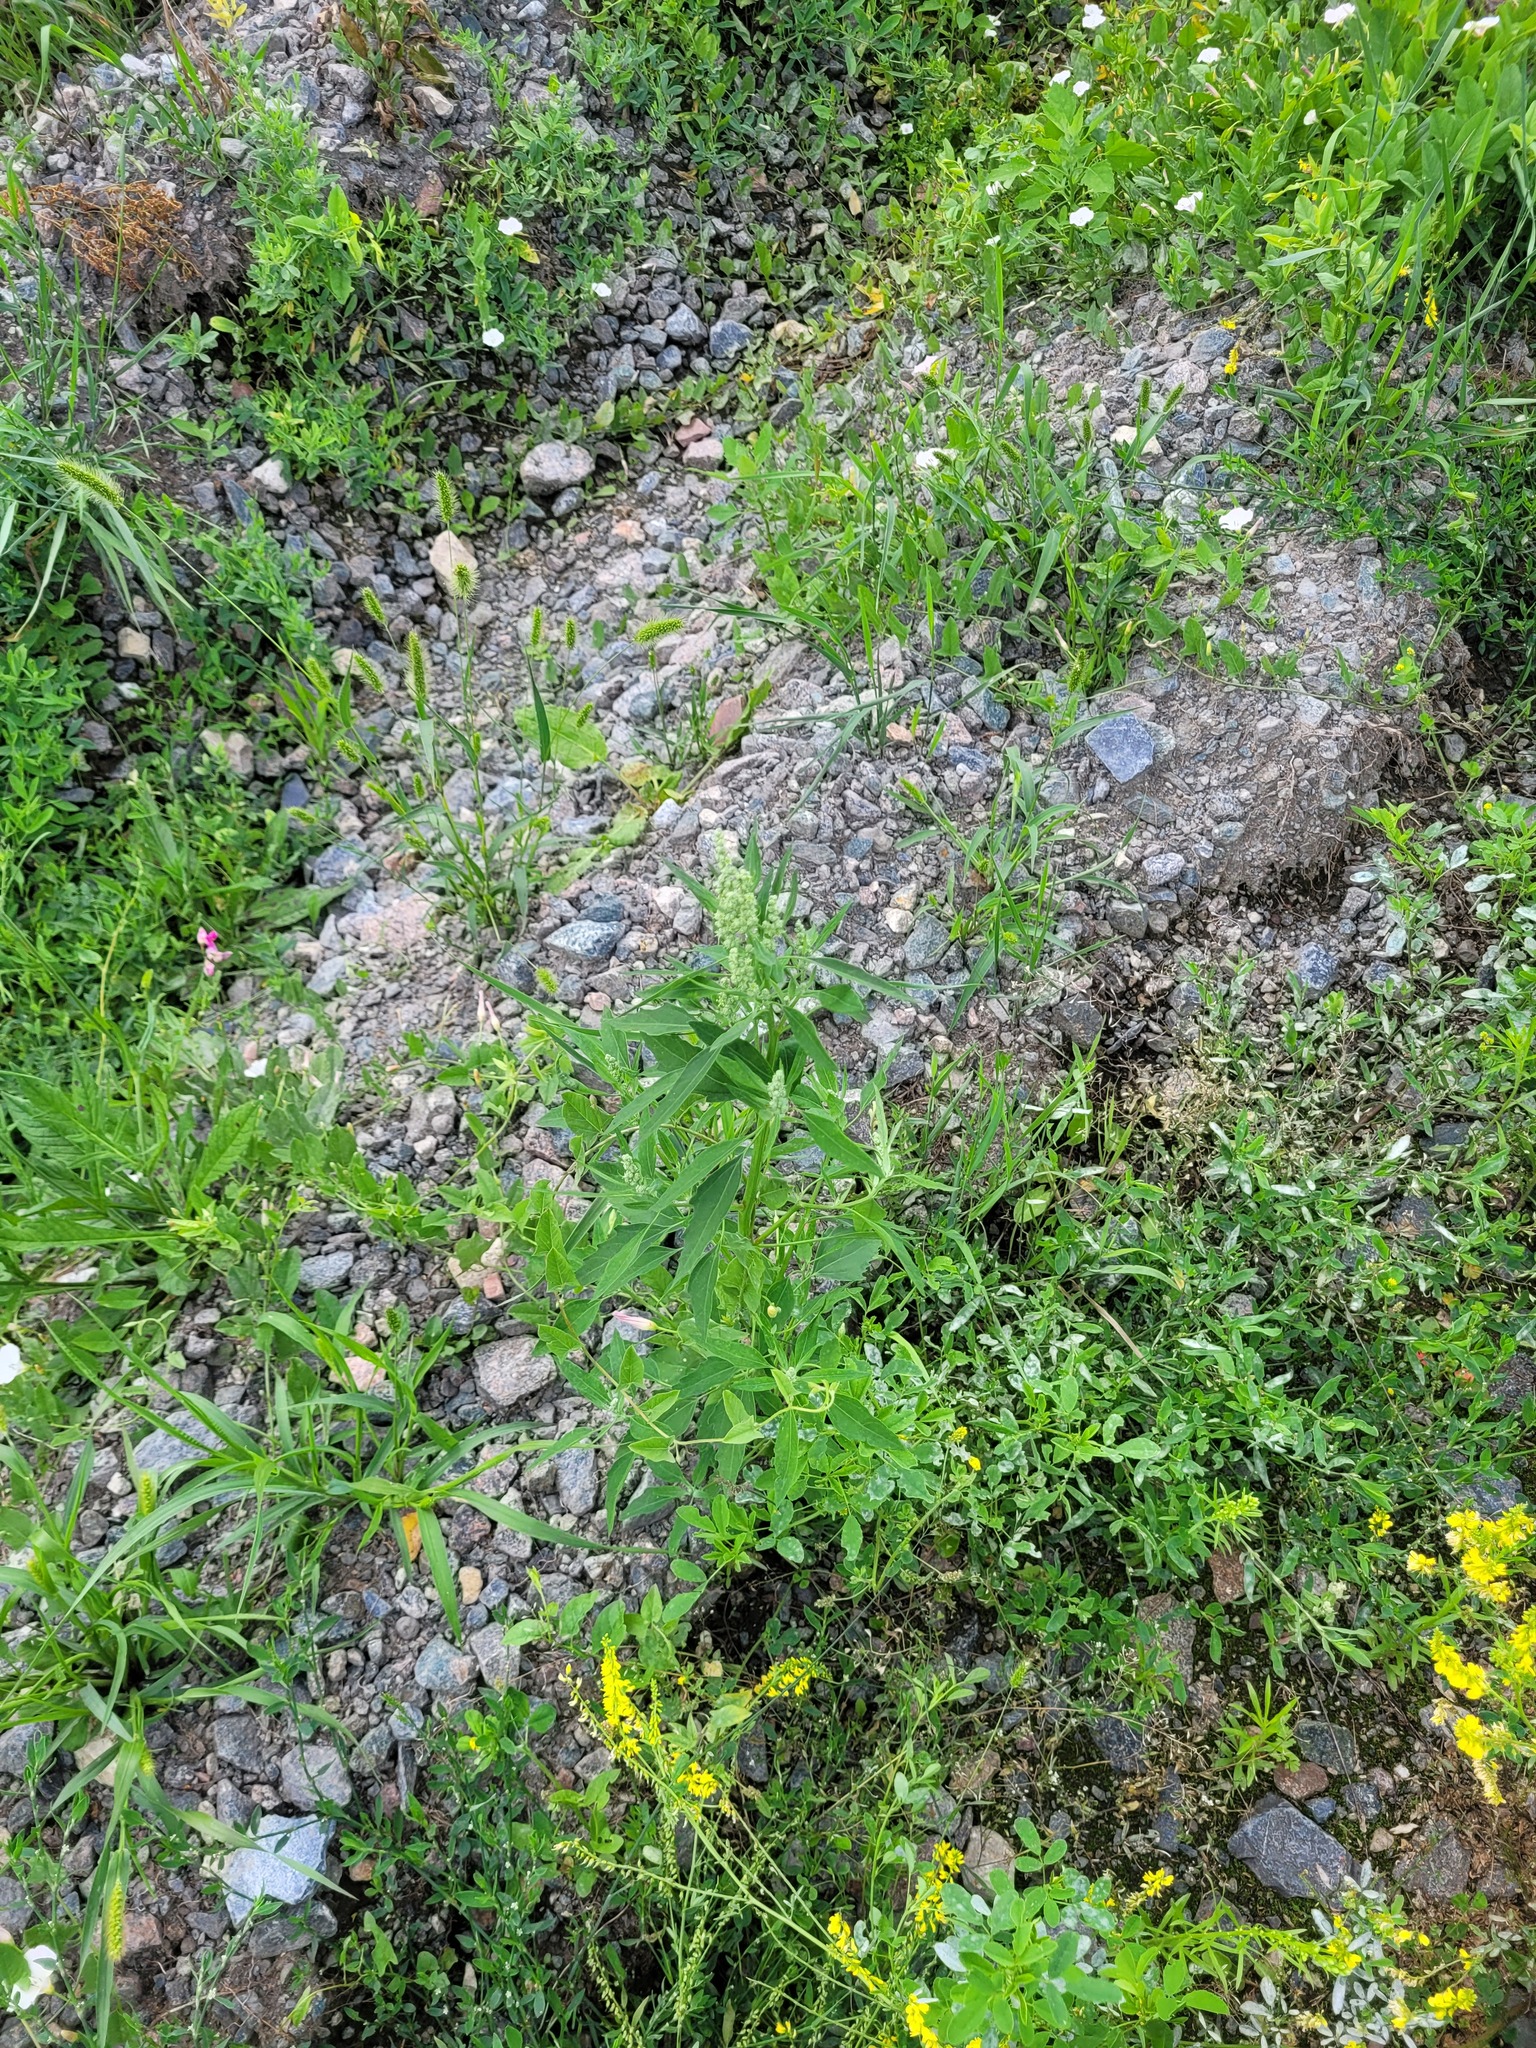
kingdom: Plantae
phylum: Tracheophyta
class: Magnoliopsida
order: Caryophyllales
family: Amaranthaceae
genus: Chenopodium
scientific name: Chenopodium album
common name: Fat-hen
